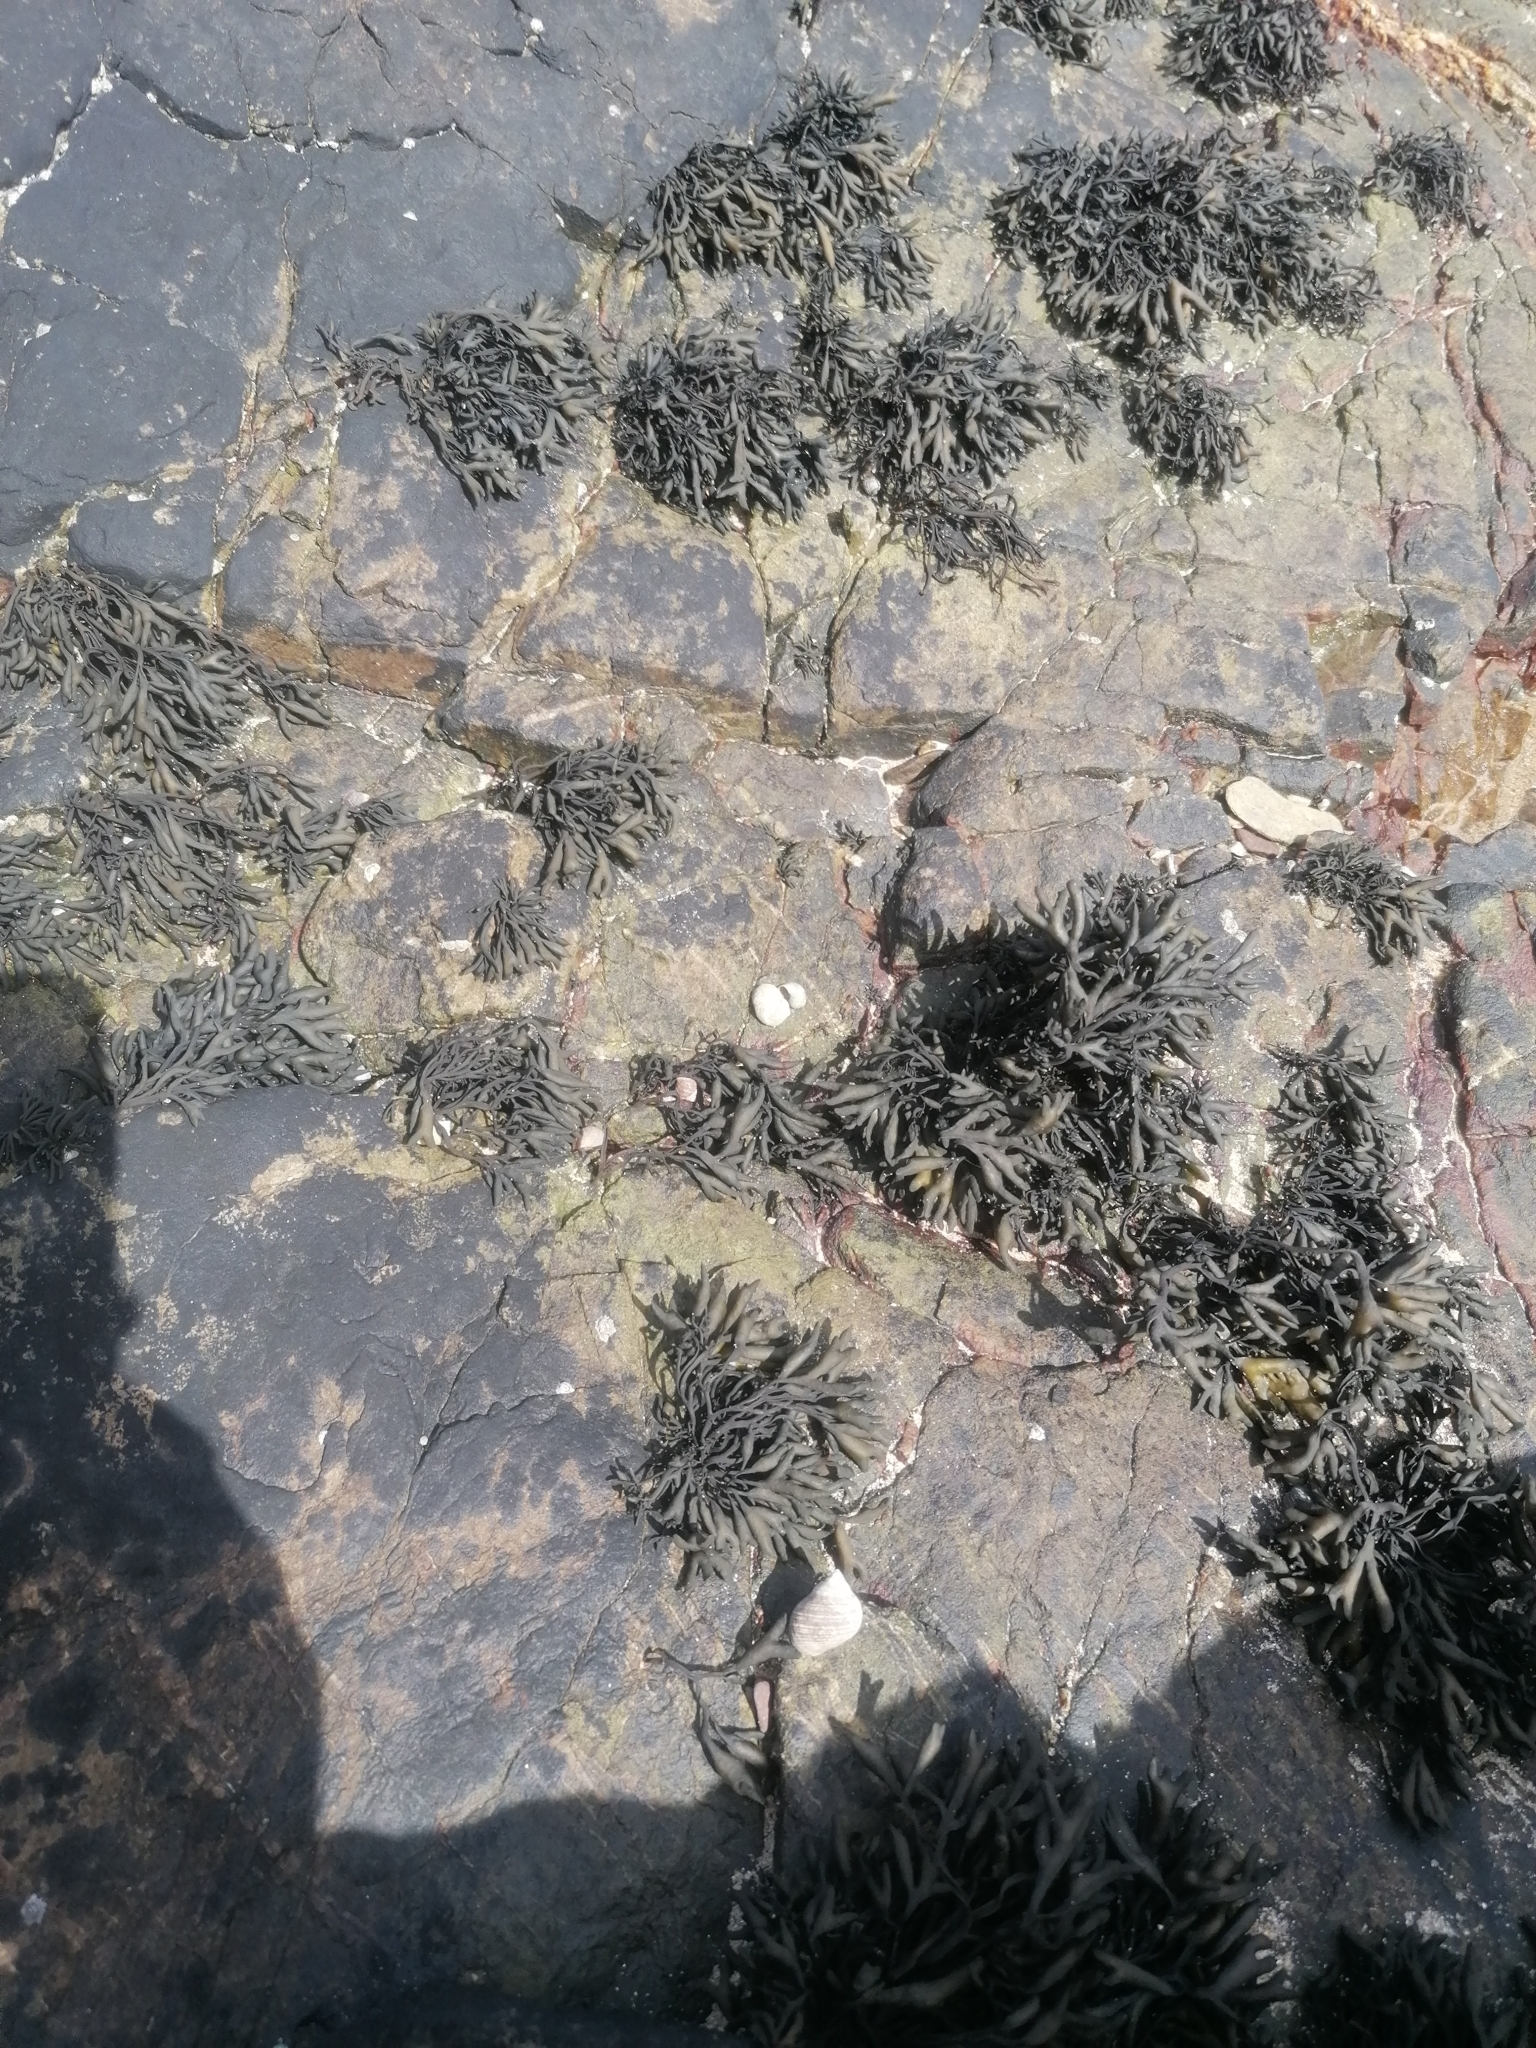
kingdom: Chromista
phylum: Ochrophyta
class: Phaeophyceae
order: Fucales
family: Fucaceae
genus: Pelvetia
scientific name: Pelvetia canaliculata
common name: Channelled wrack
